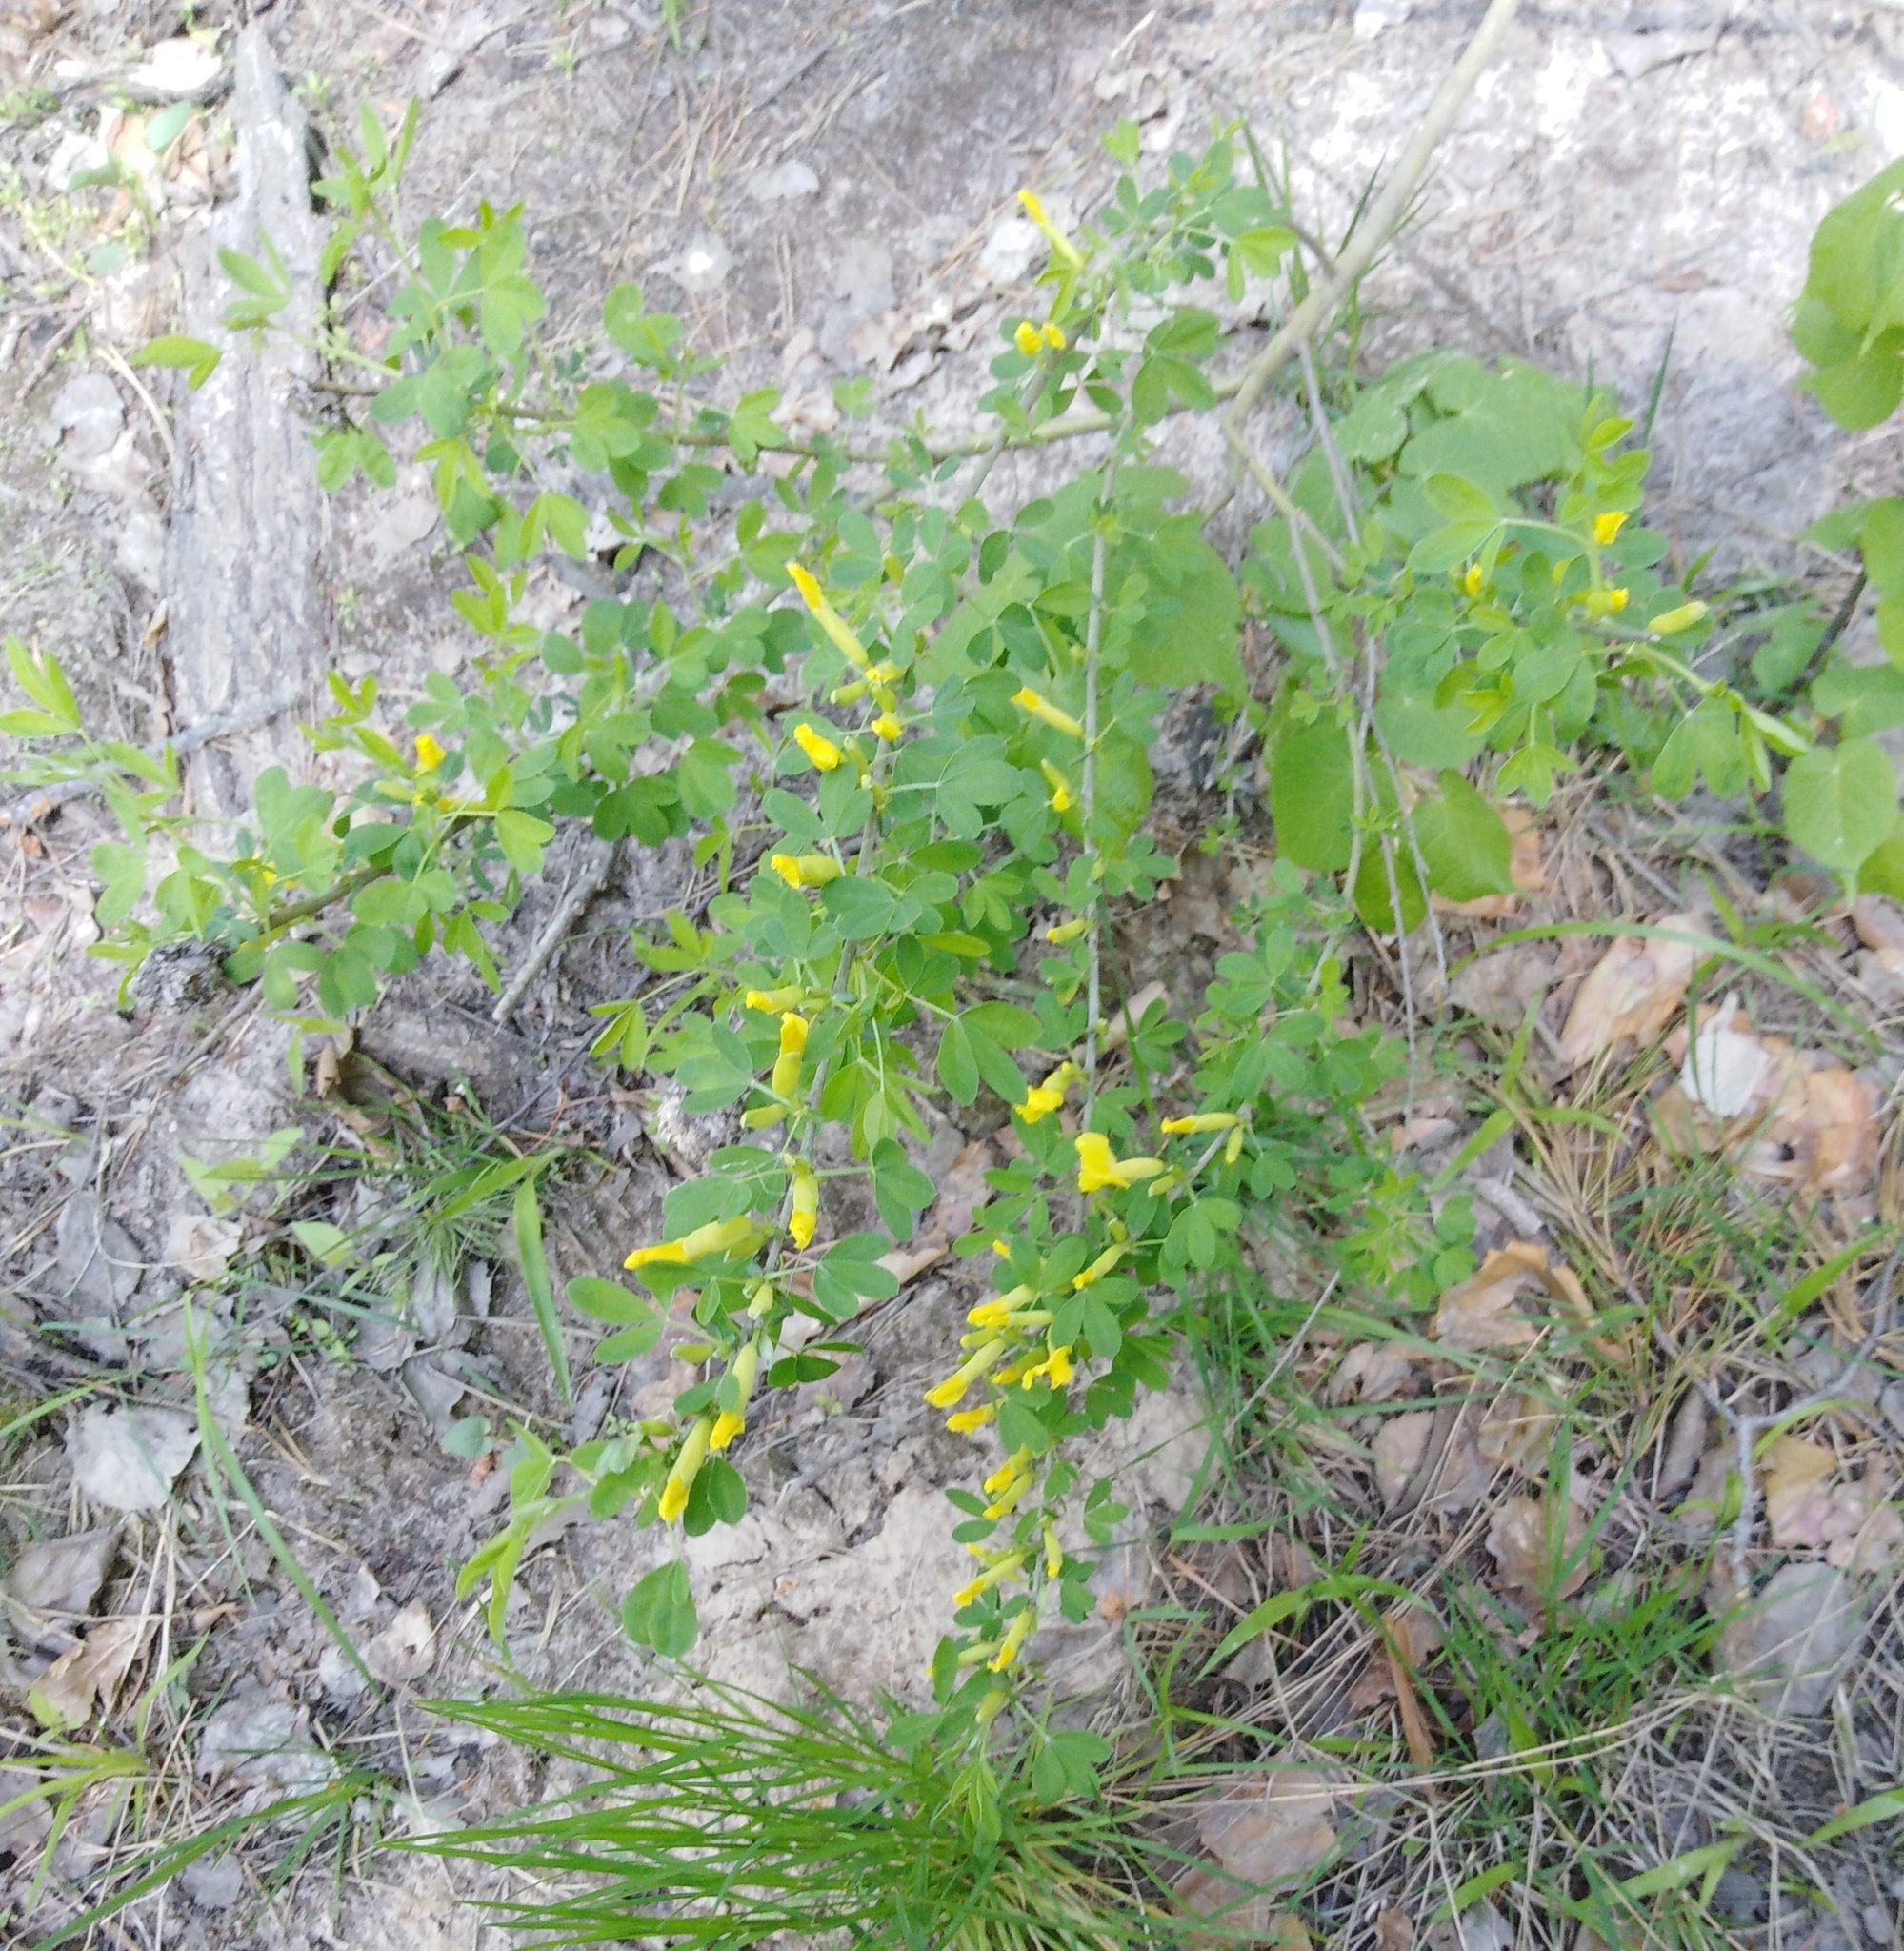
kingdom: Plantae
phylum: Tracheophyta
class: Magnoliopsida
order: Fabales
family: Fabaceae
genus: Chamaecytisus
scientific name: Chamaecytisus ruthenicus
